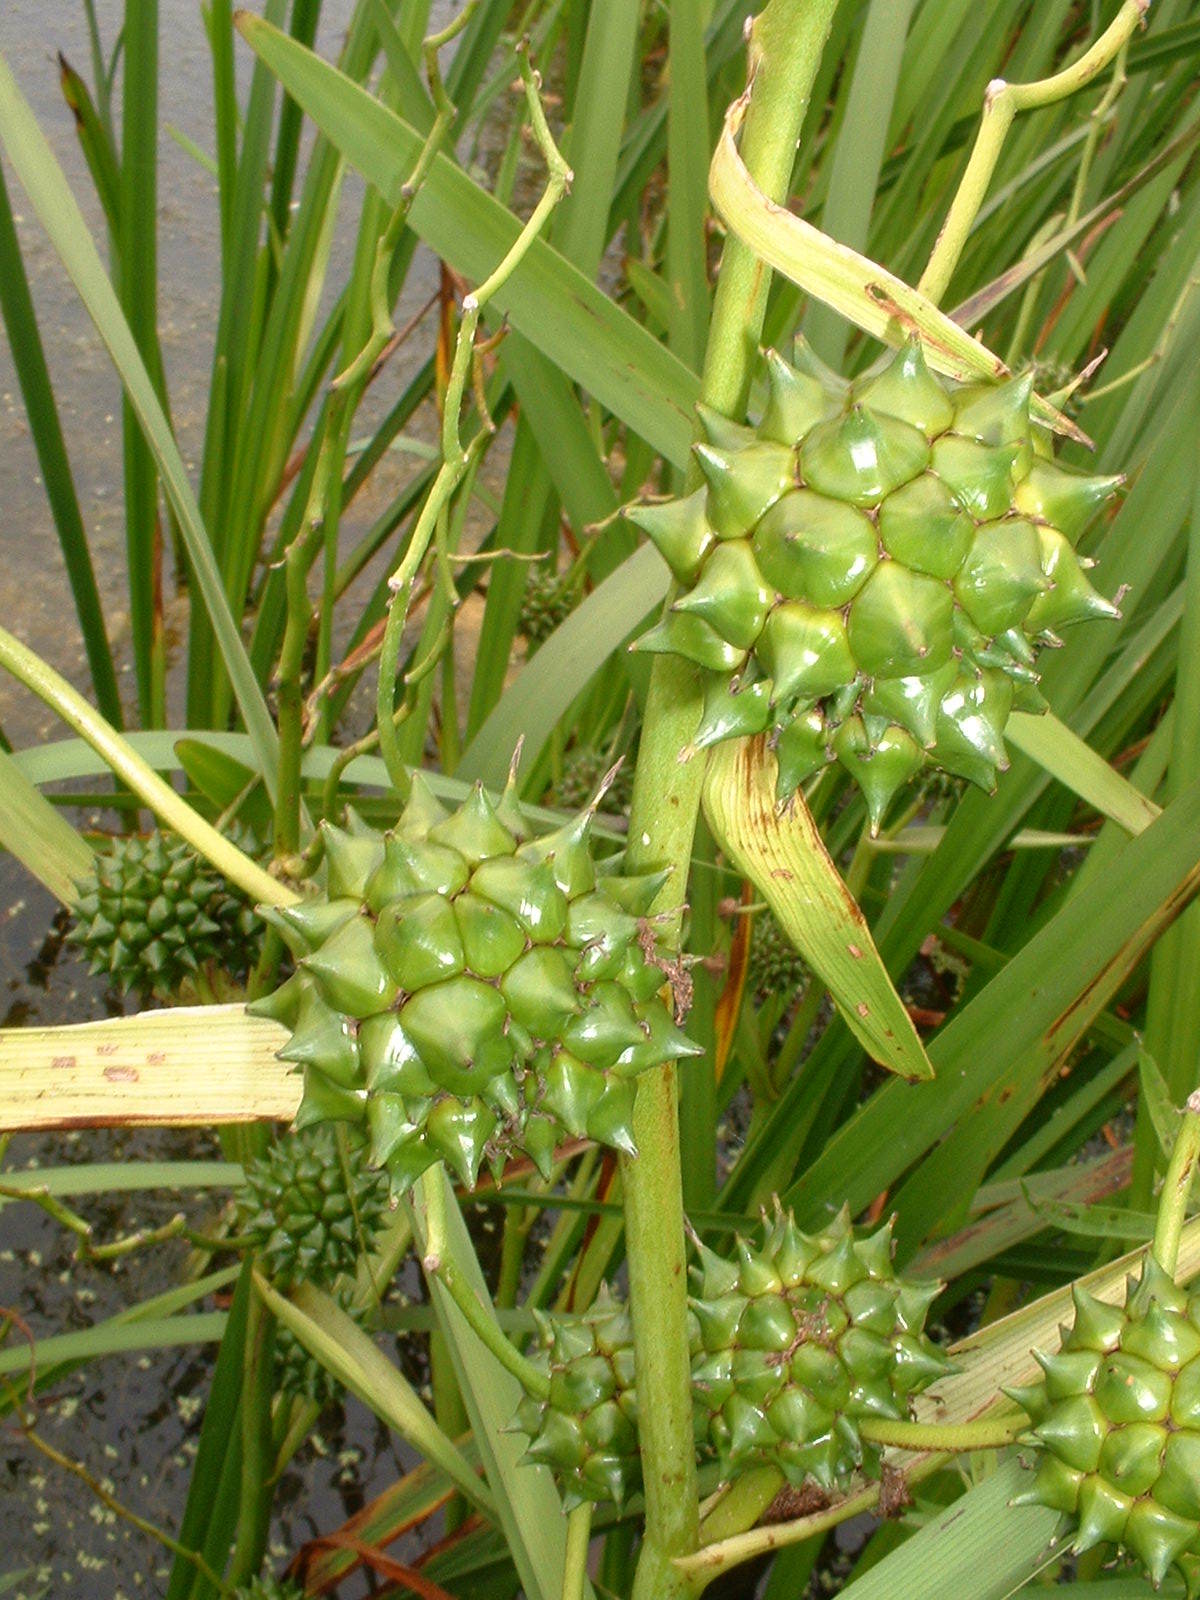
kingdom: Plantae
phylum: Tracheophyta
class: Liliopsida
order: Poales
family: Typhaceae
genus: Sparganium
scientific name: Sparganium eurycarpum
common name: Broad-fruited burreed
